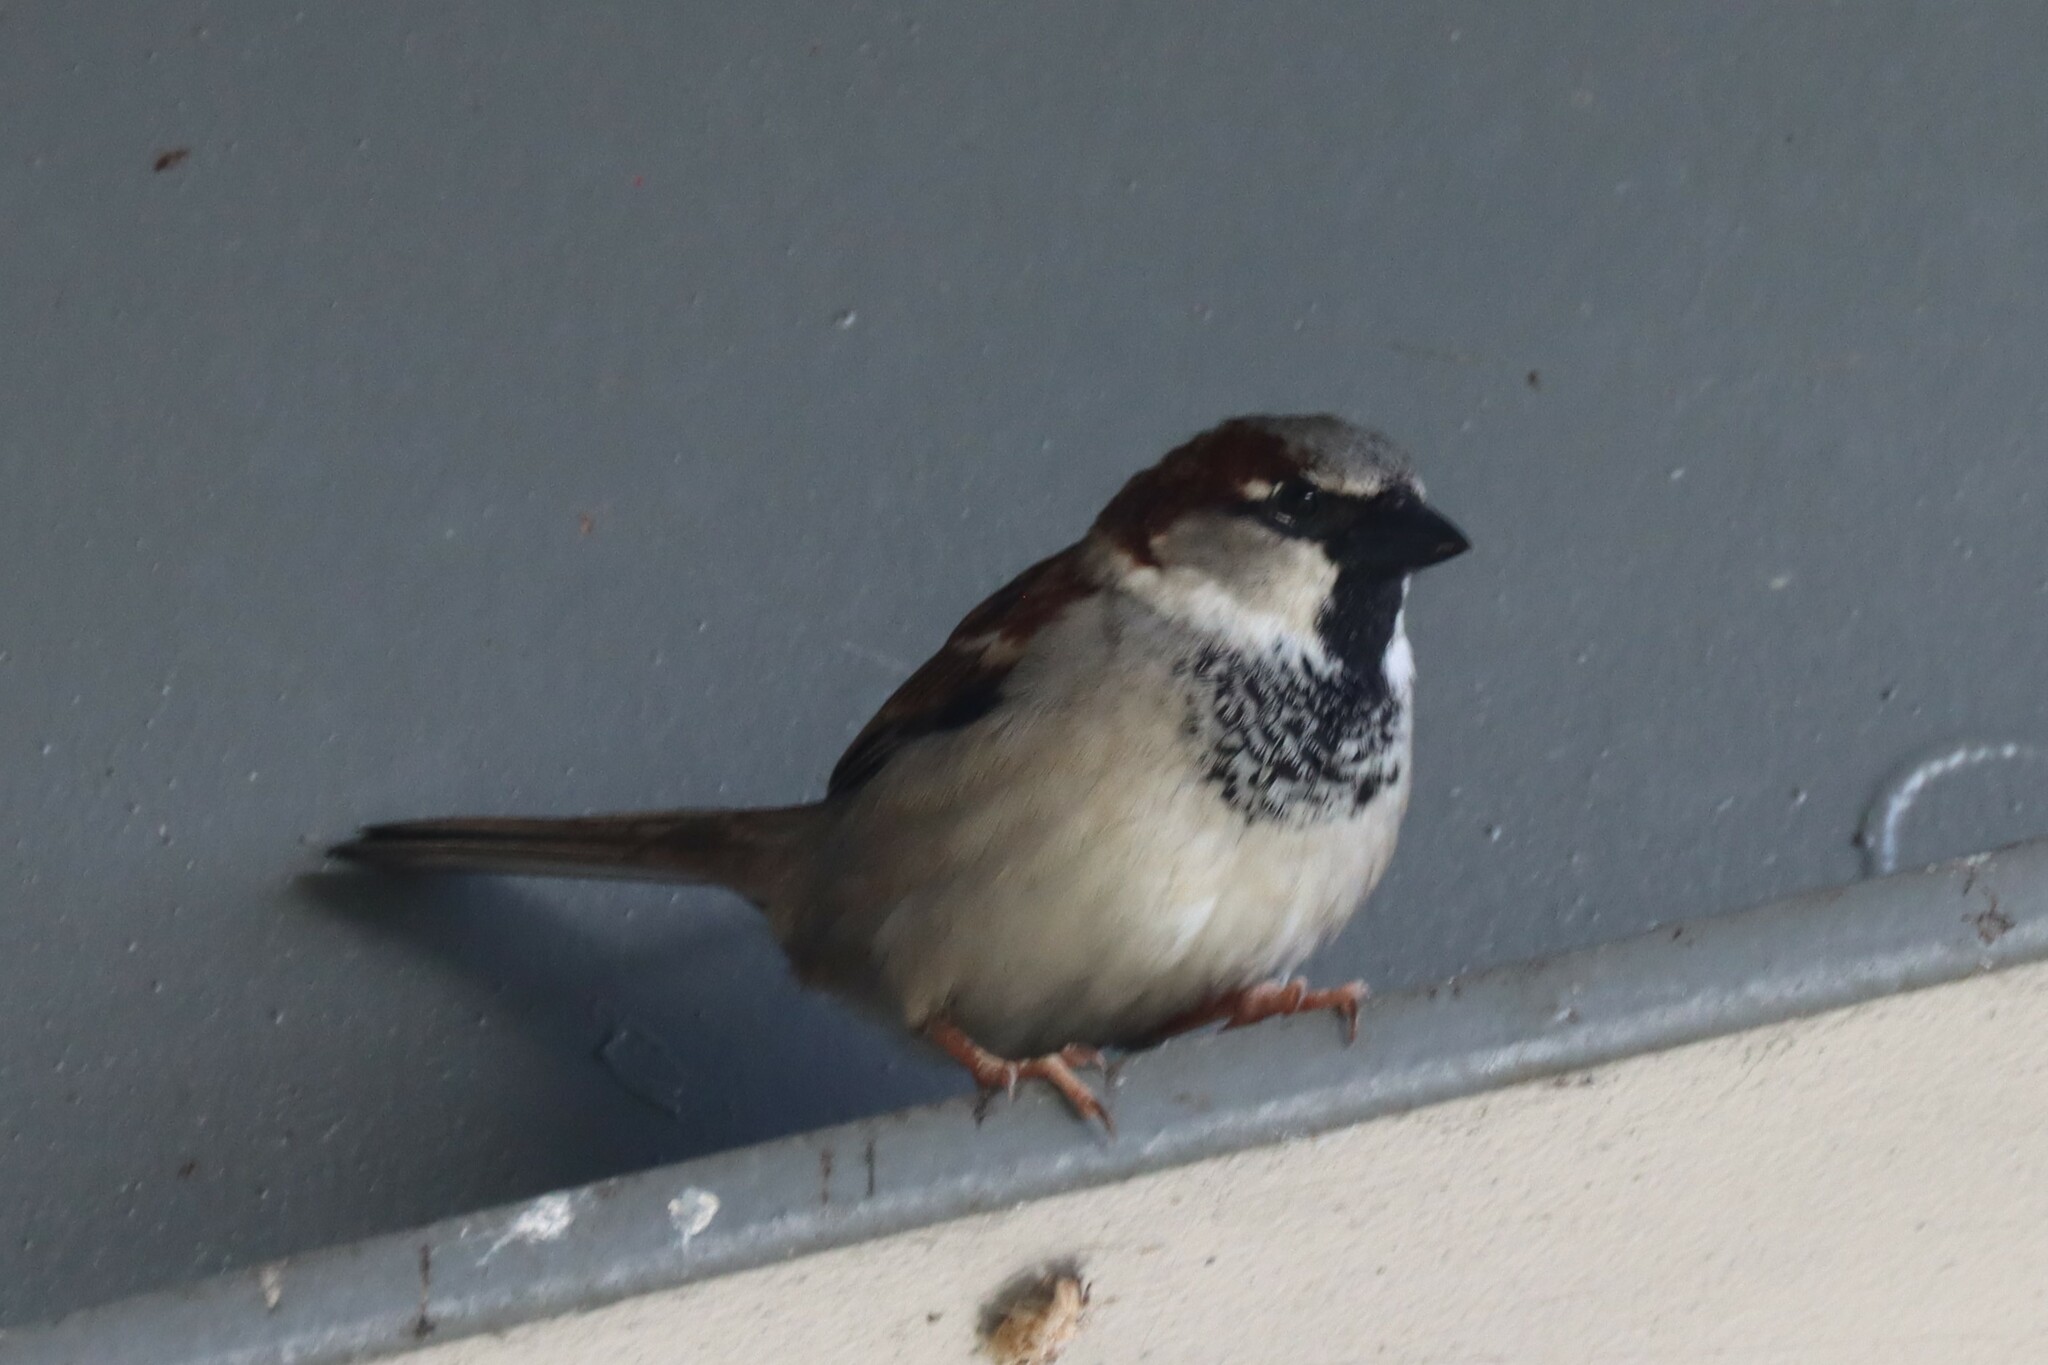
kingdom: Animalia
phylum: Chordata
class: Aves
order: Passeriformes
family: Passeridae
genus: Passer
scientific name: Passer domesticus
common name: House sparrow
